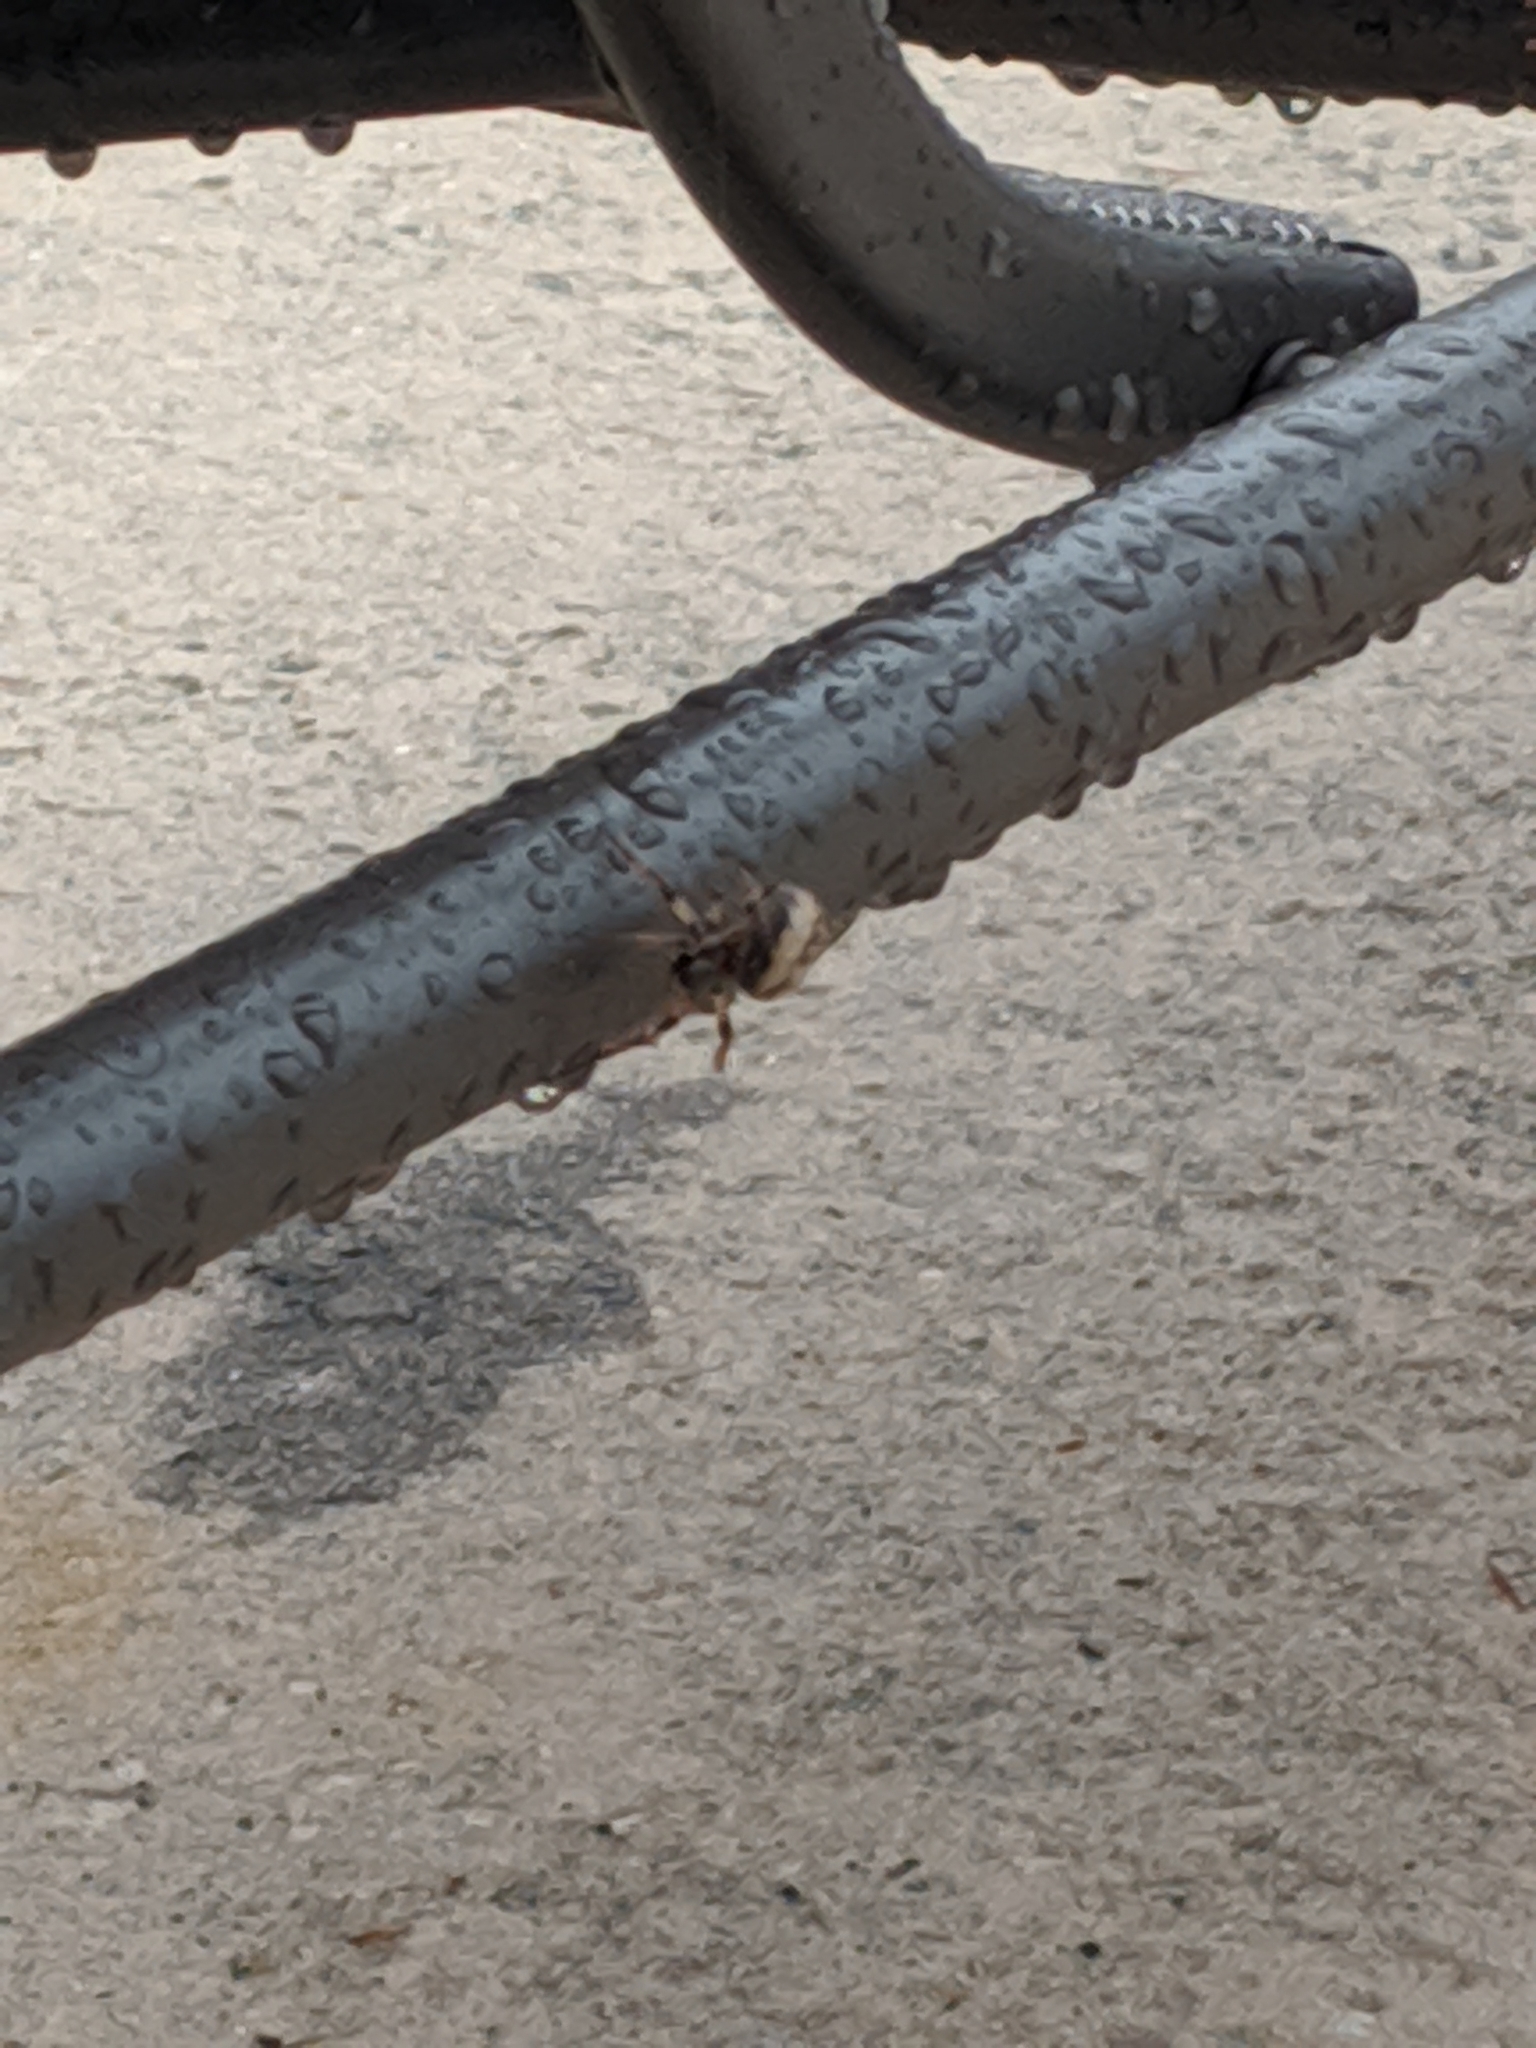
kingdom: Animalia
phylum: Arthropoda
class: Arachnida
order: Araneae
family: Araneidae
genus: Larinioides
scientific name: Larinioides cornutus
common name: Furrow orbweaver
